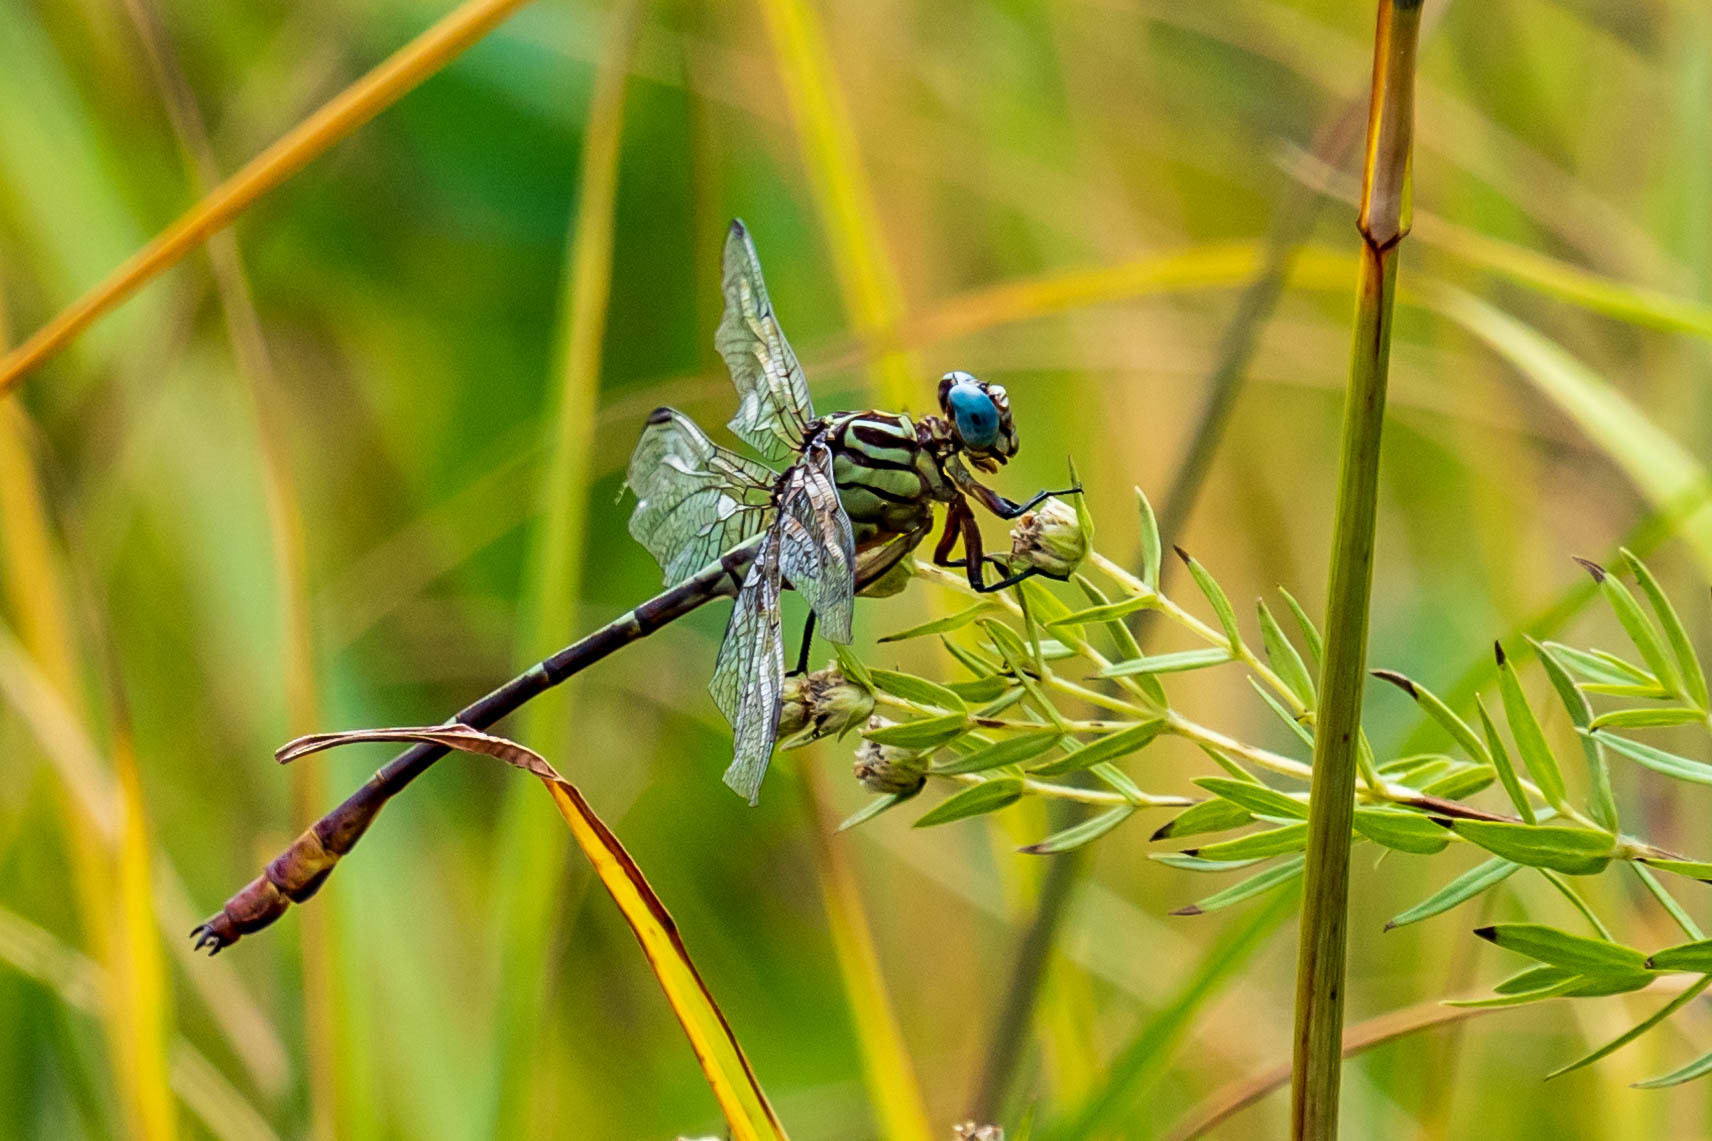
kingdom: Animalia
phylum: Arthropoda
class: Insecta
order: Odonata
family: Gomphidae
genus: Stylurus
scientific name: Stylurus plagiatus
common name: Russet-tipped clubtail
